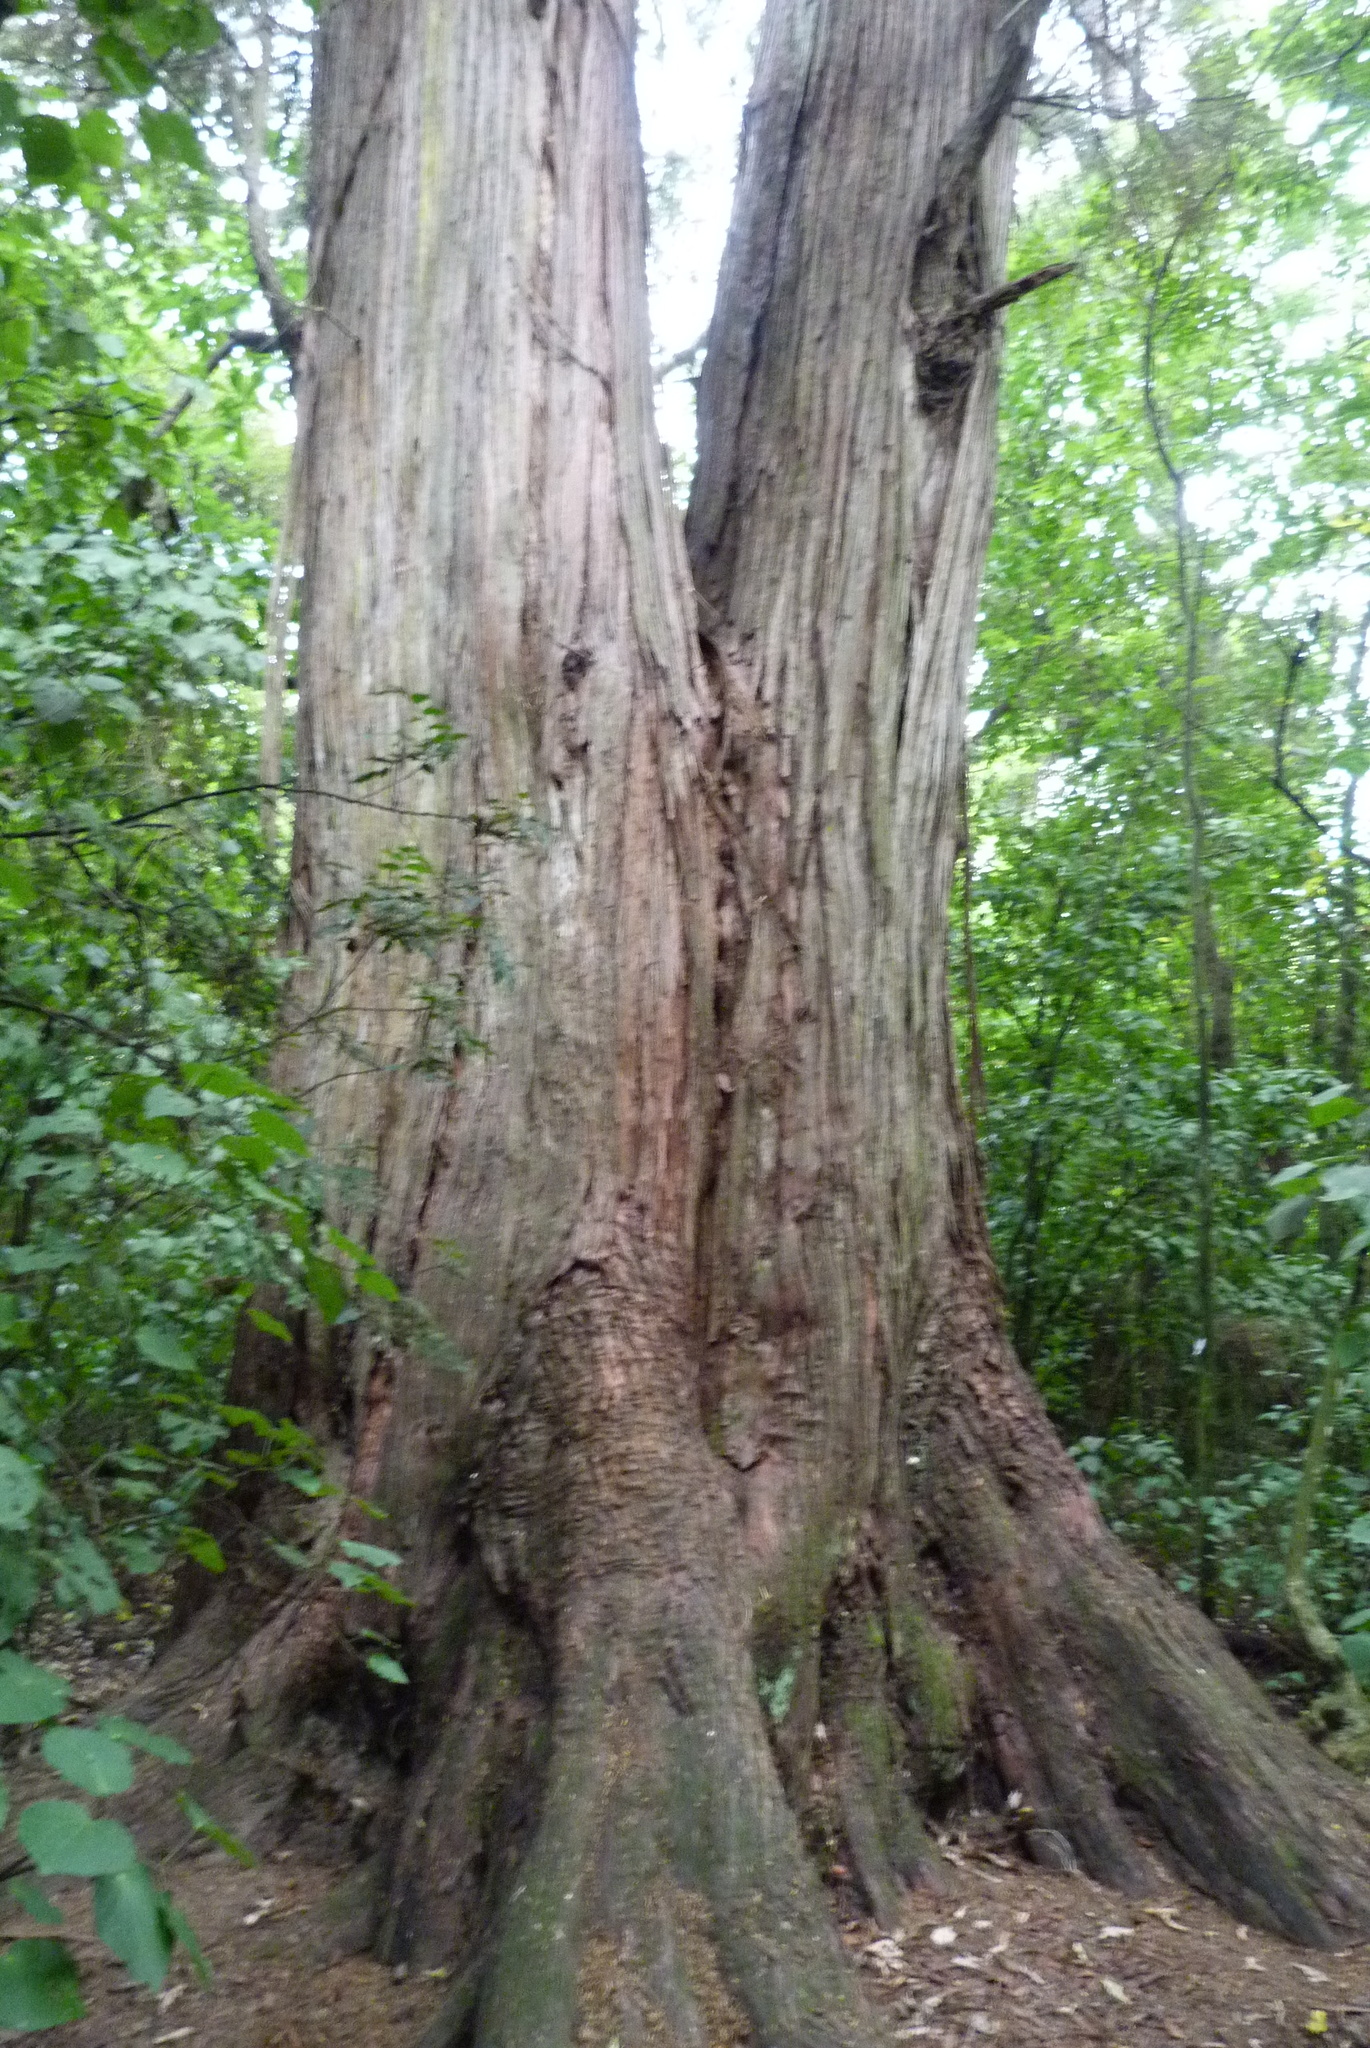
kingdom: Plantae
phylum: Tracheophyta
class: Pinopsida
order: Pinales
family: Podocarpaceae
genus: Podocarpus
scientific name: Podocarpus totara
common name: Totara
